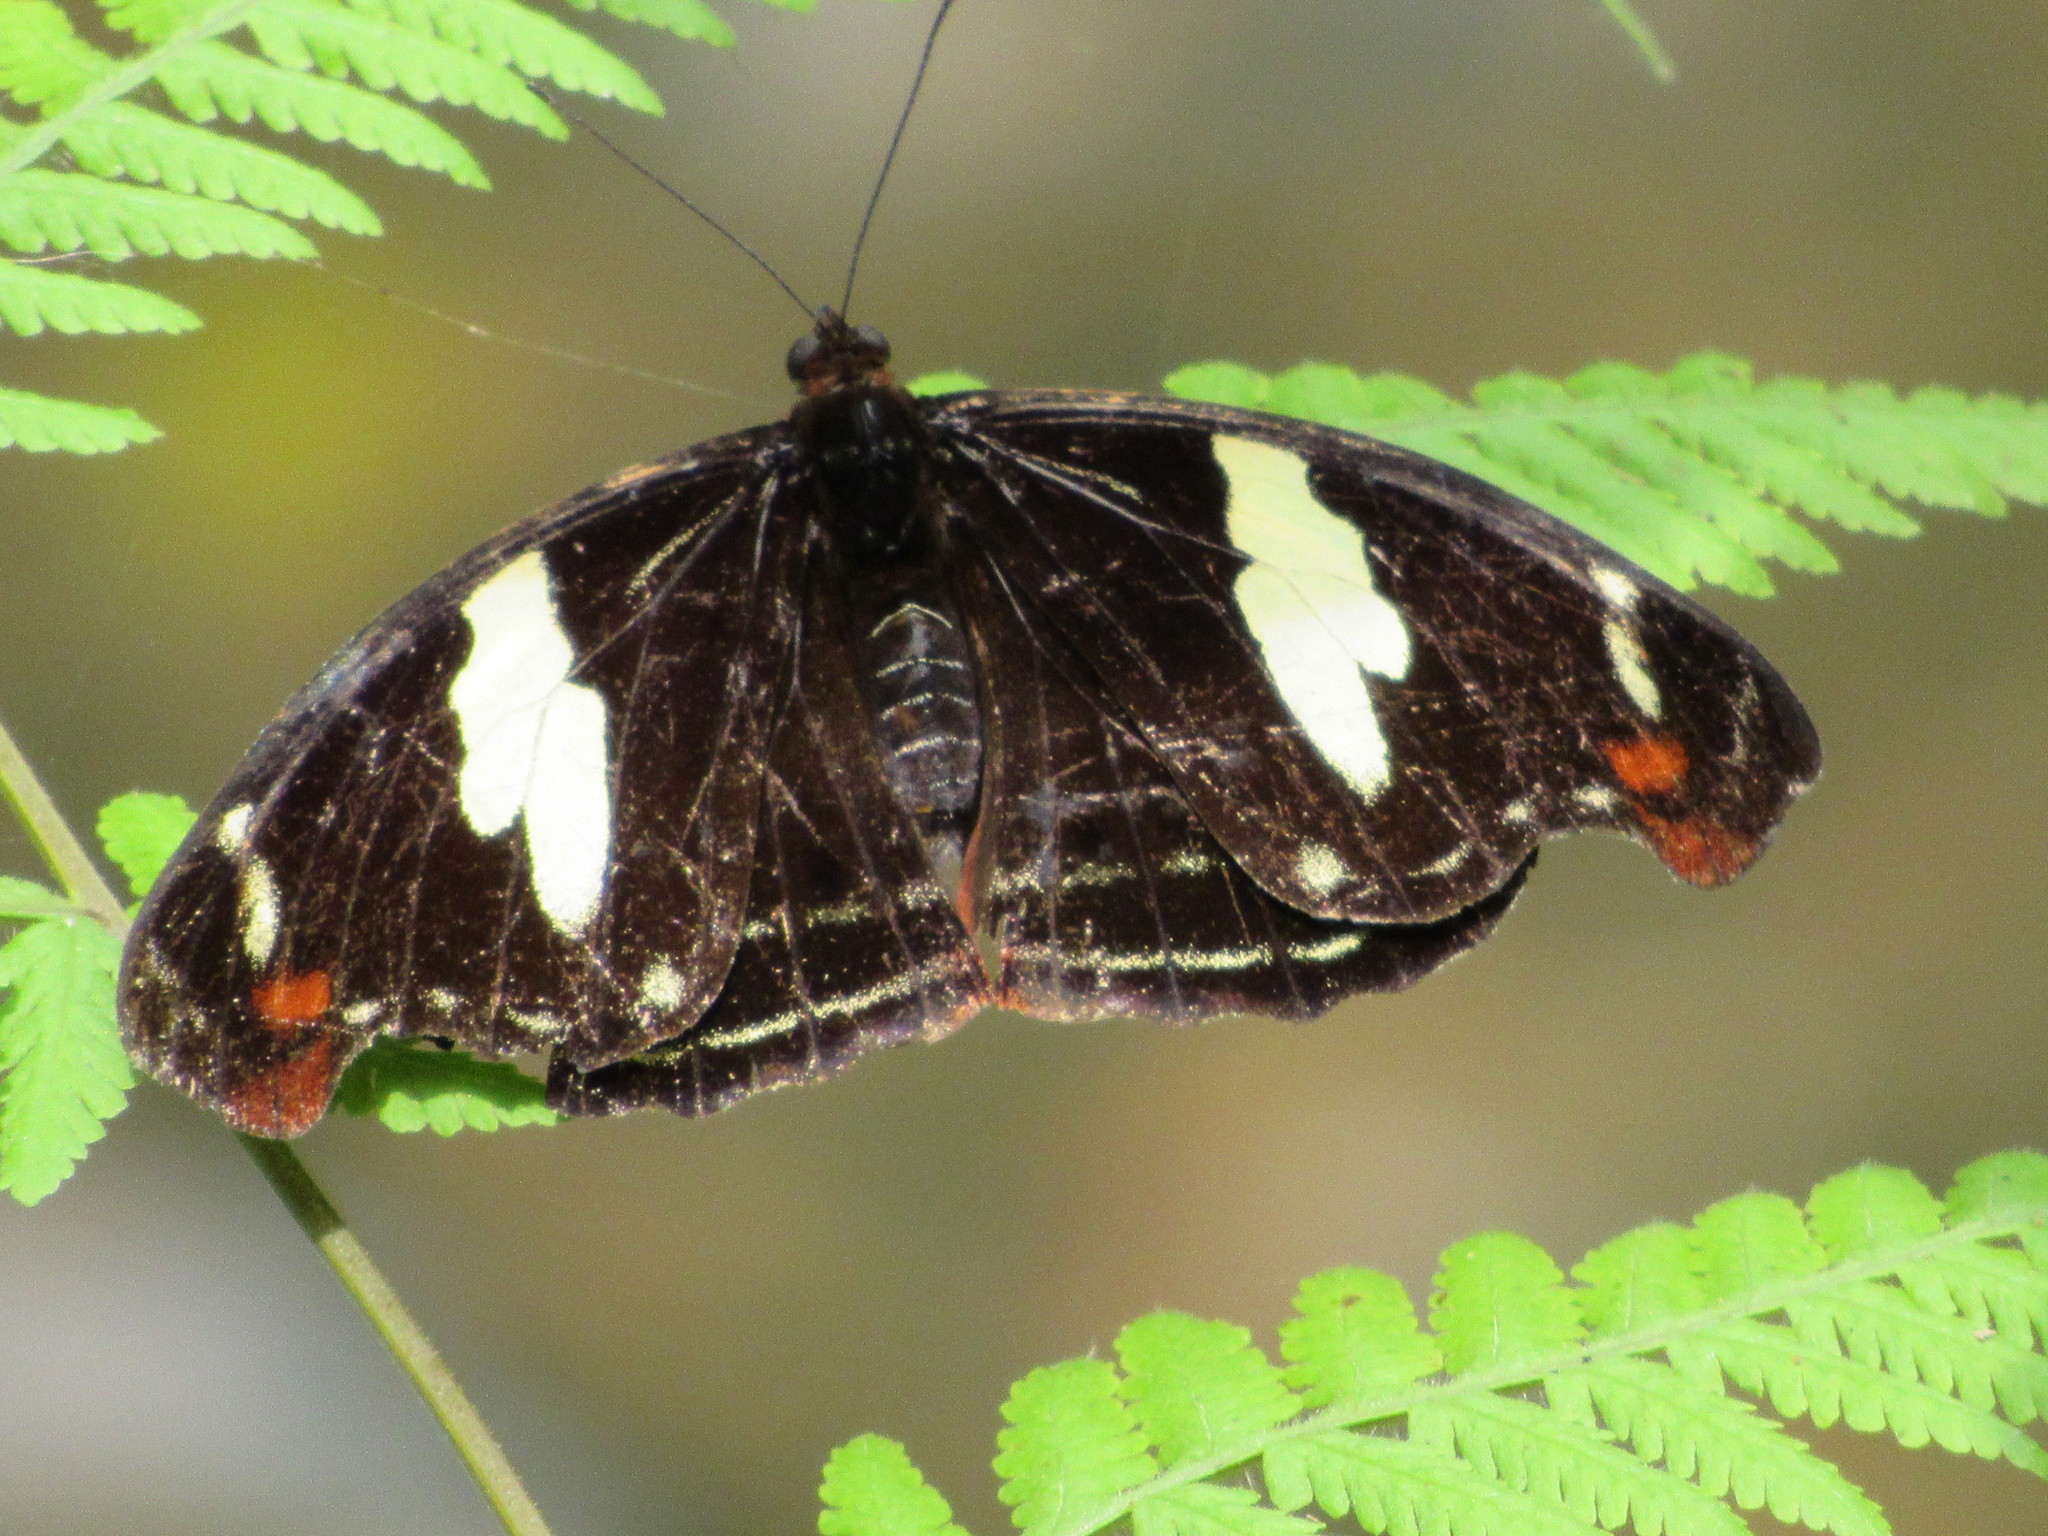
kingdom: Animalia
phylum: Arthropoda
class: Insecta
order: Lepidoptera
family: Nymphalidae
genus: Catonephele
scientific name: Catonephele numilia
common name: Blue-frosted banner
